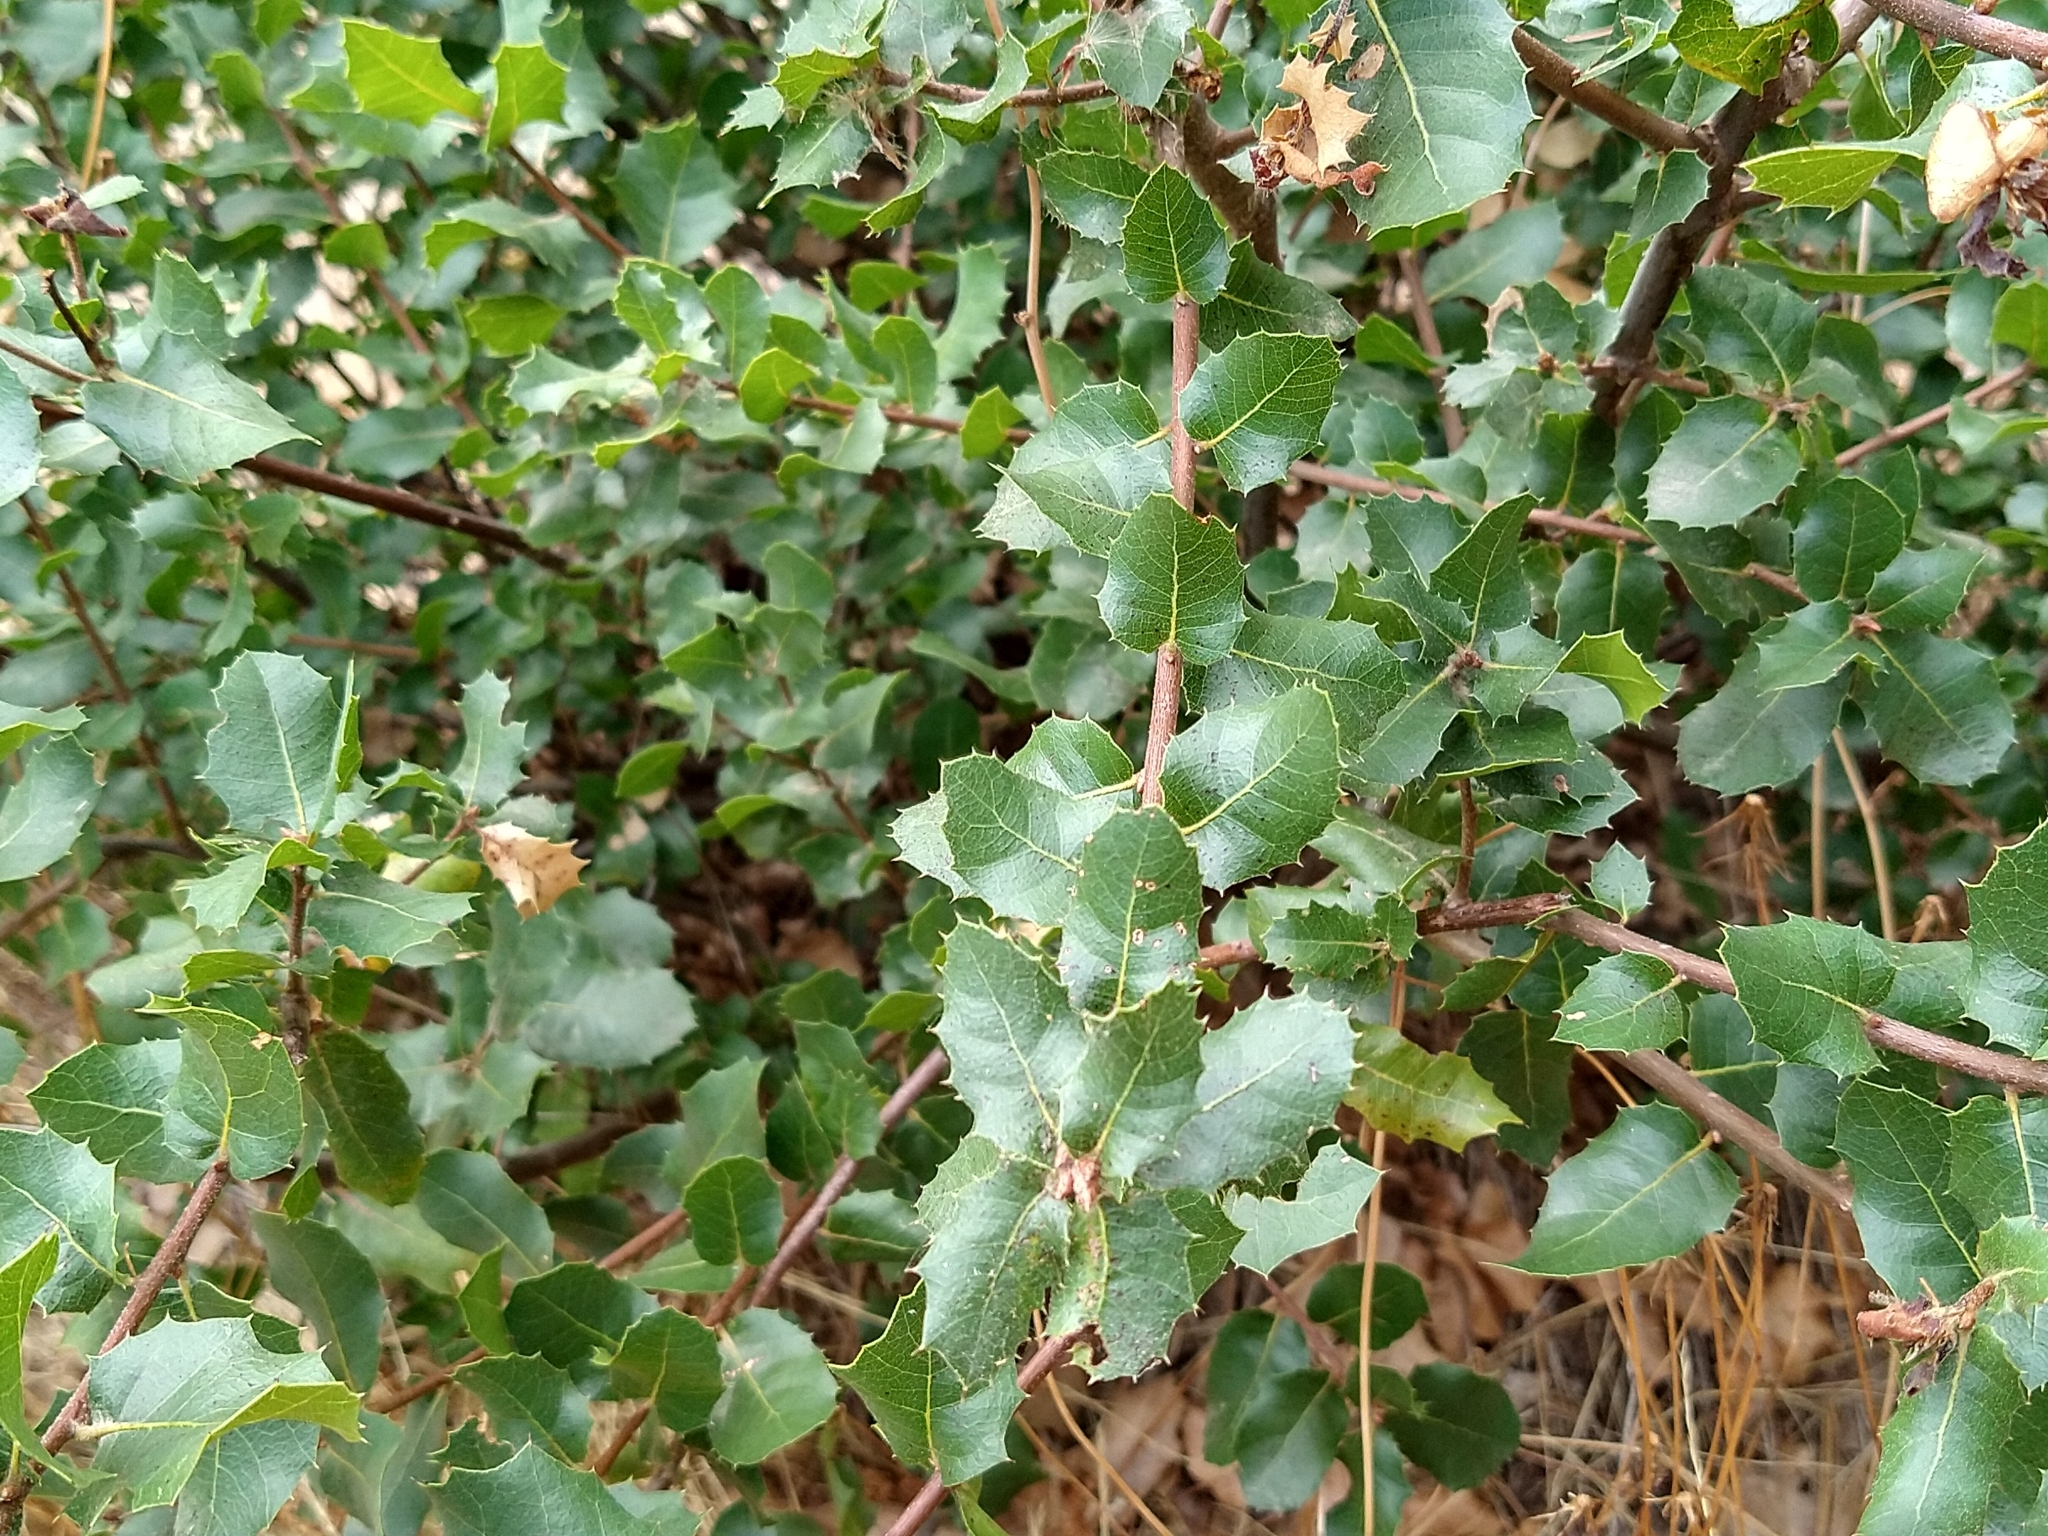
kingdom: Plantae
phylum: Tracheophyta
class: Magnoliopsida
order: Fagales
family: Fagaceae
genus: Quercus
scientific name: Quercus wislizeni
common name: Interior live oak
